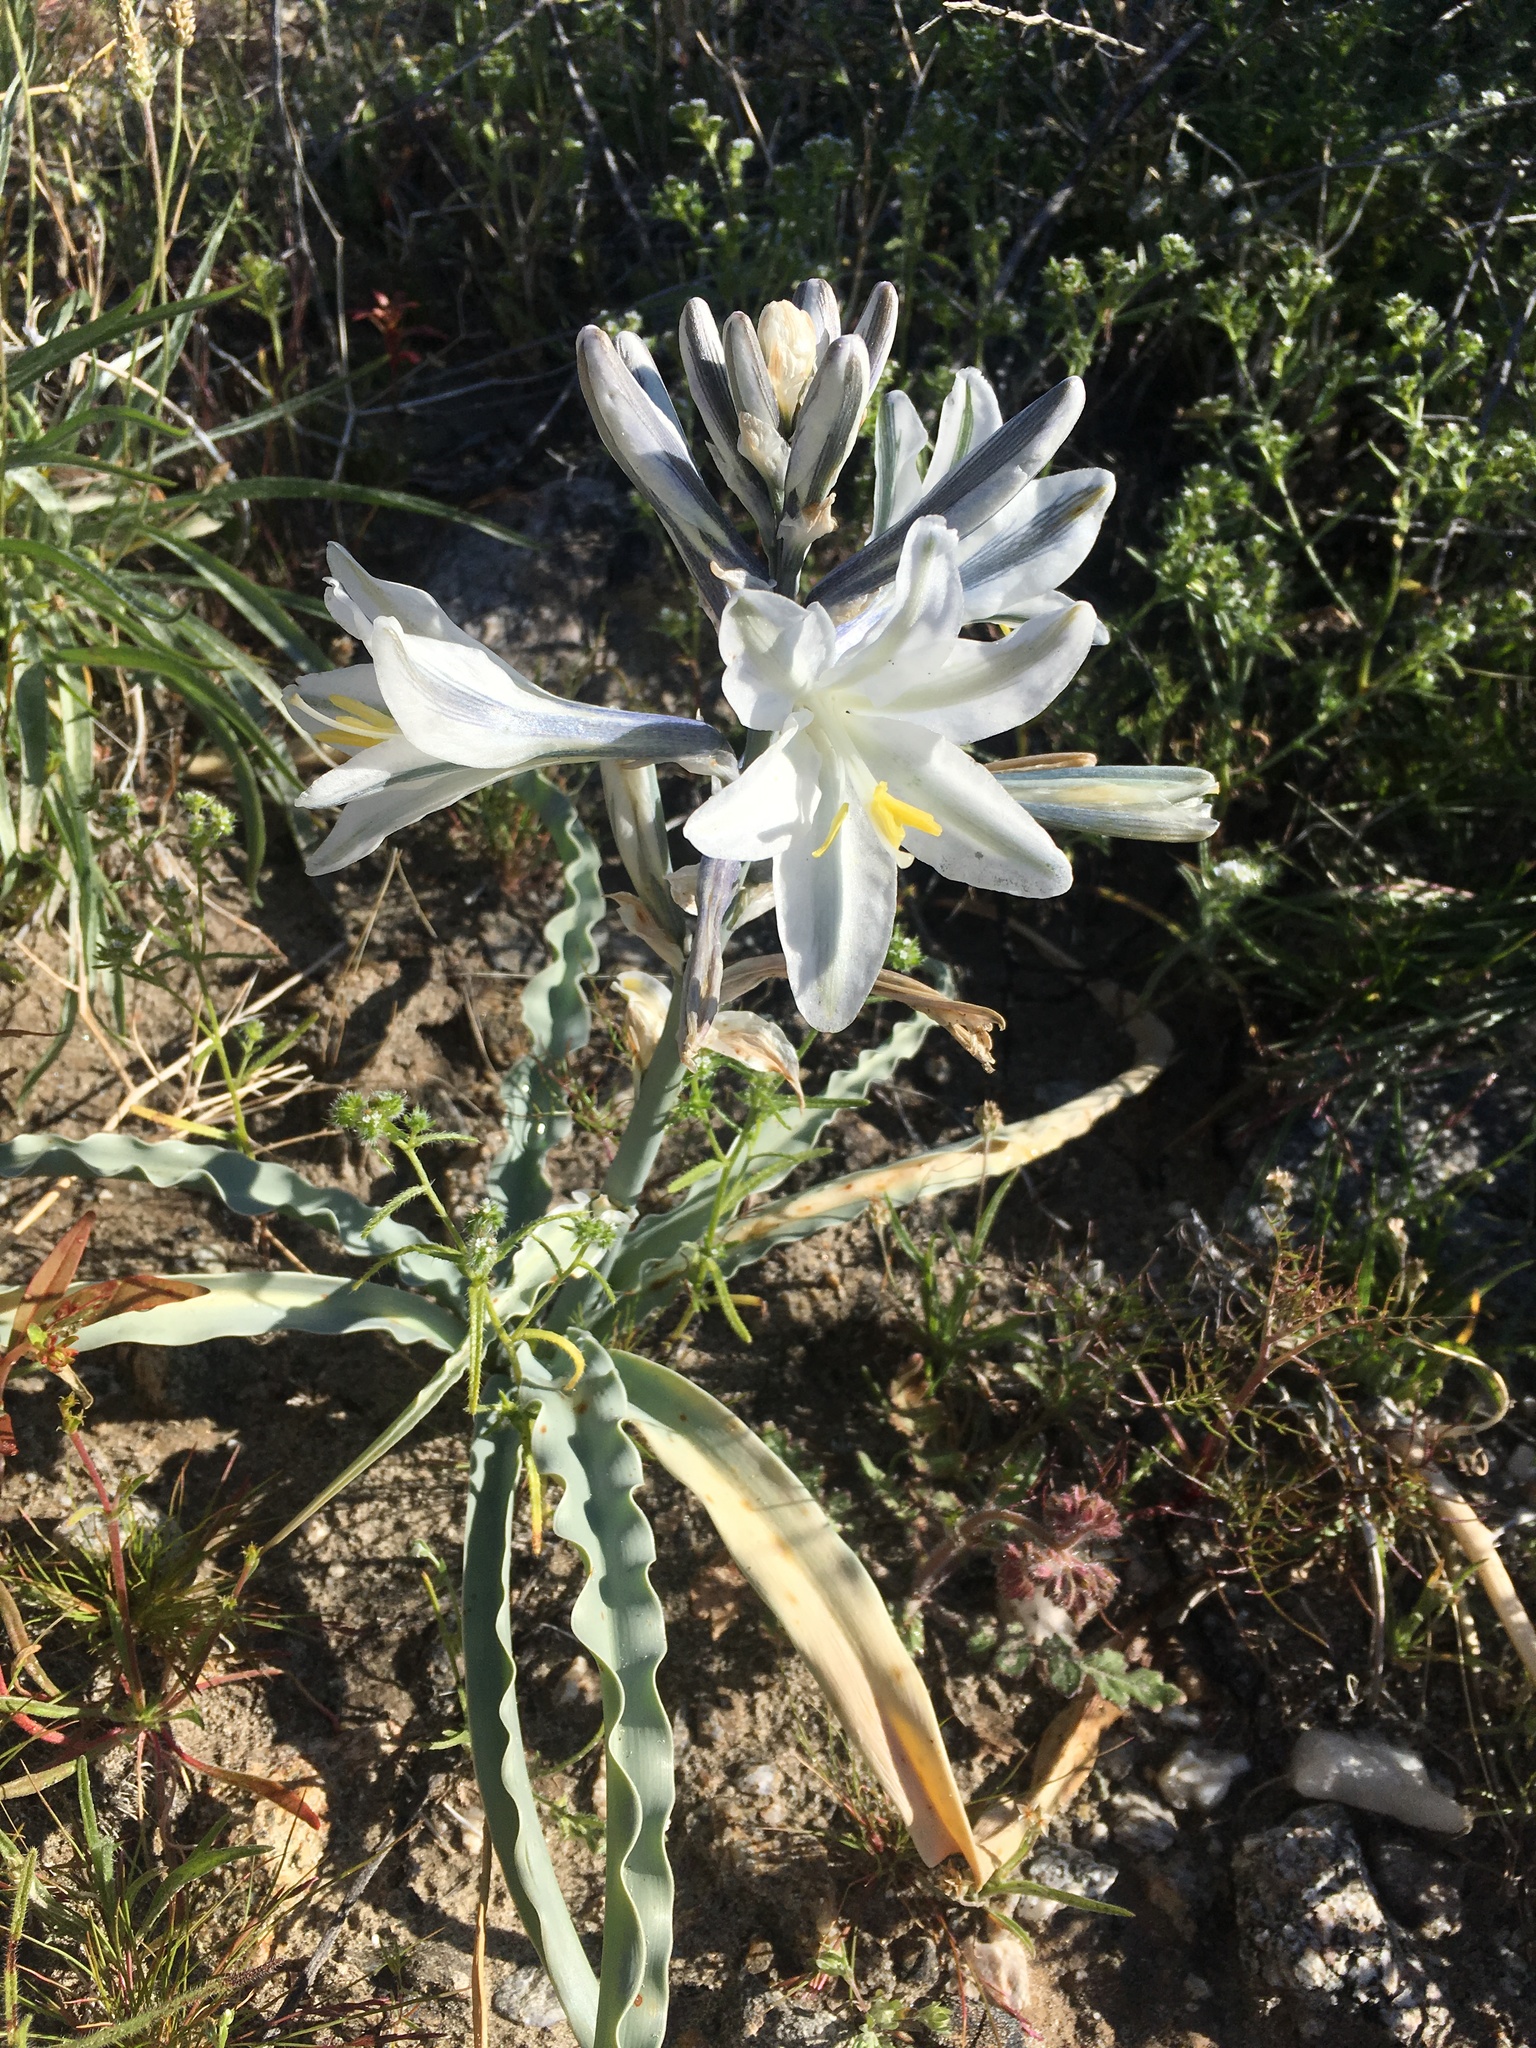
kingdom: Plantae
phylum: Tracheophyta
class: Liliopsida
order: Asparagales
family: Asparagaceae
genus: Hesperocallis
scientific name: Hesperocallis undulata
